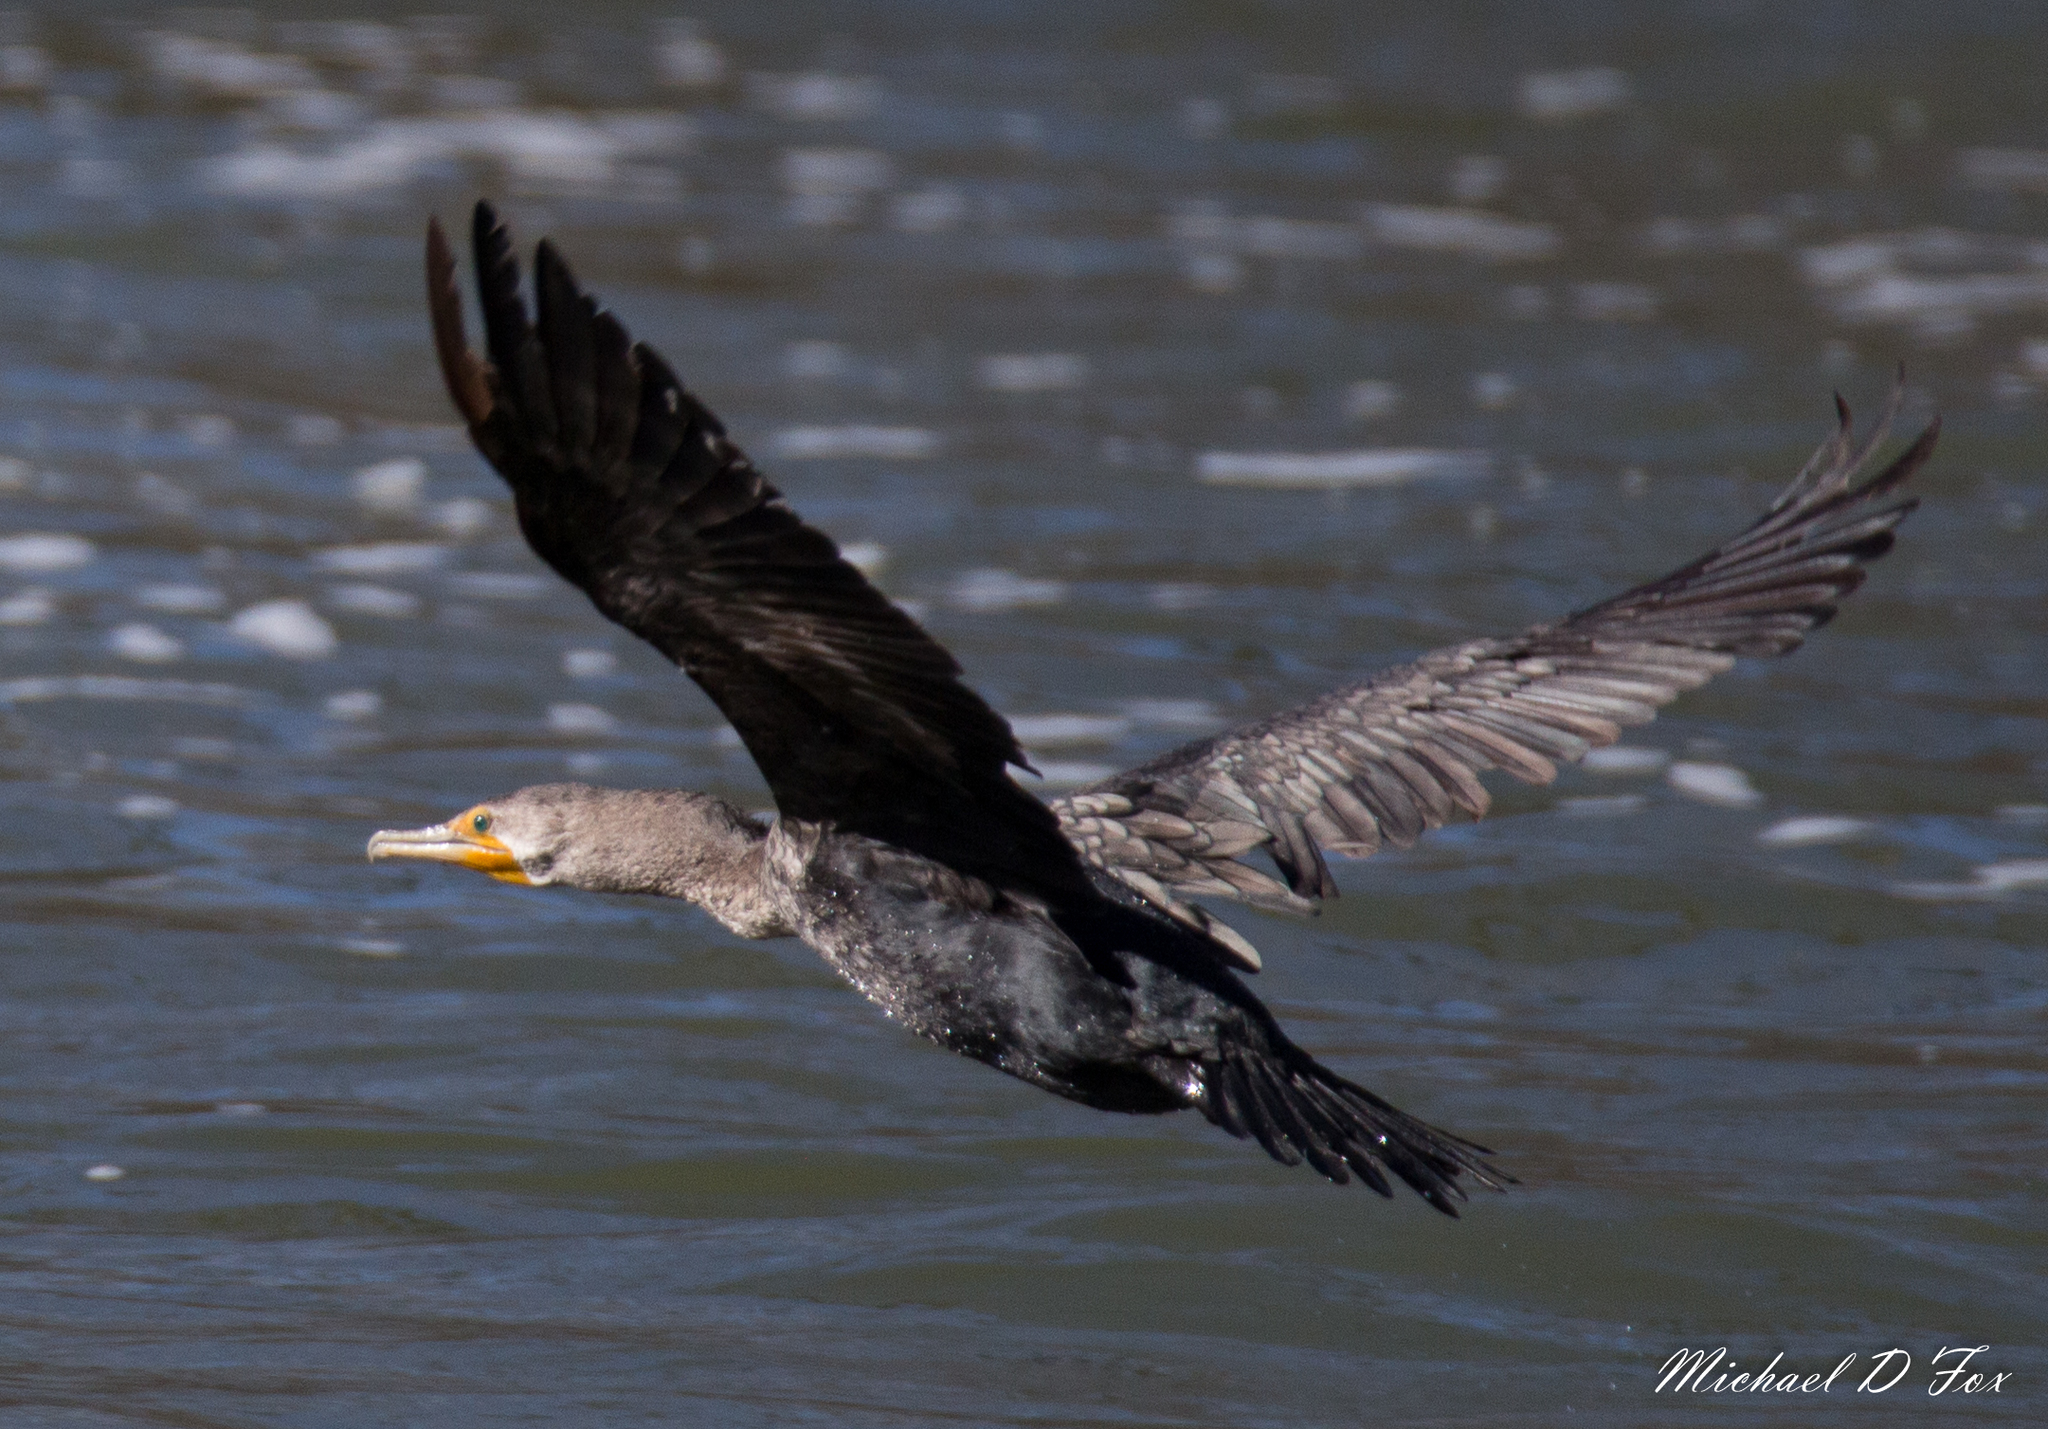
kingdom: Animalia
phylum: Chordata
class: Aves
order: Suliformes
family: Phalacrocoracidae
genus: Phalacrocorax
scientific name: Phalacrocorax auritus
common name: Double-crested cormorant
